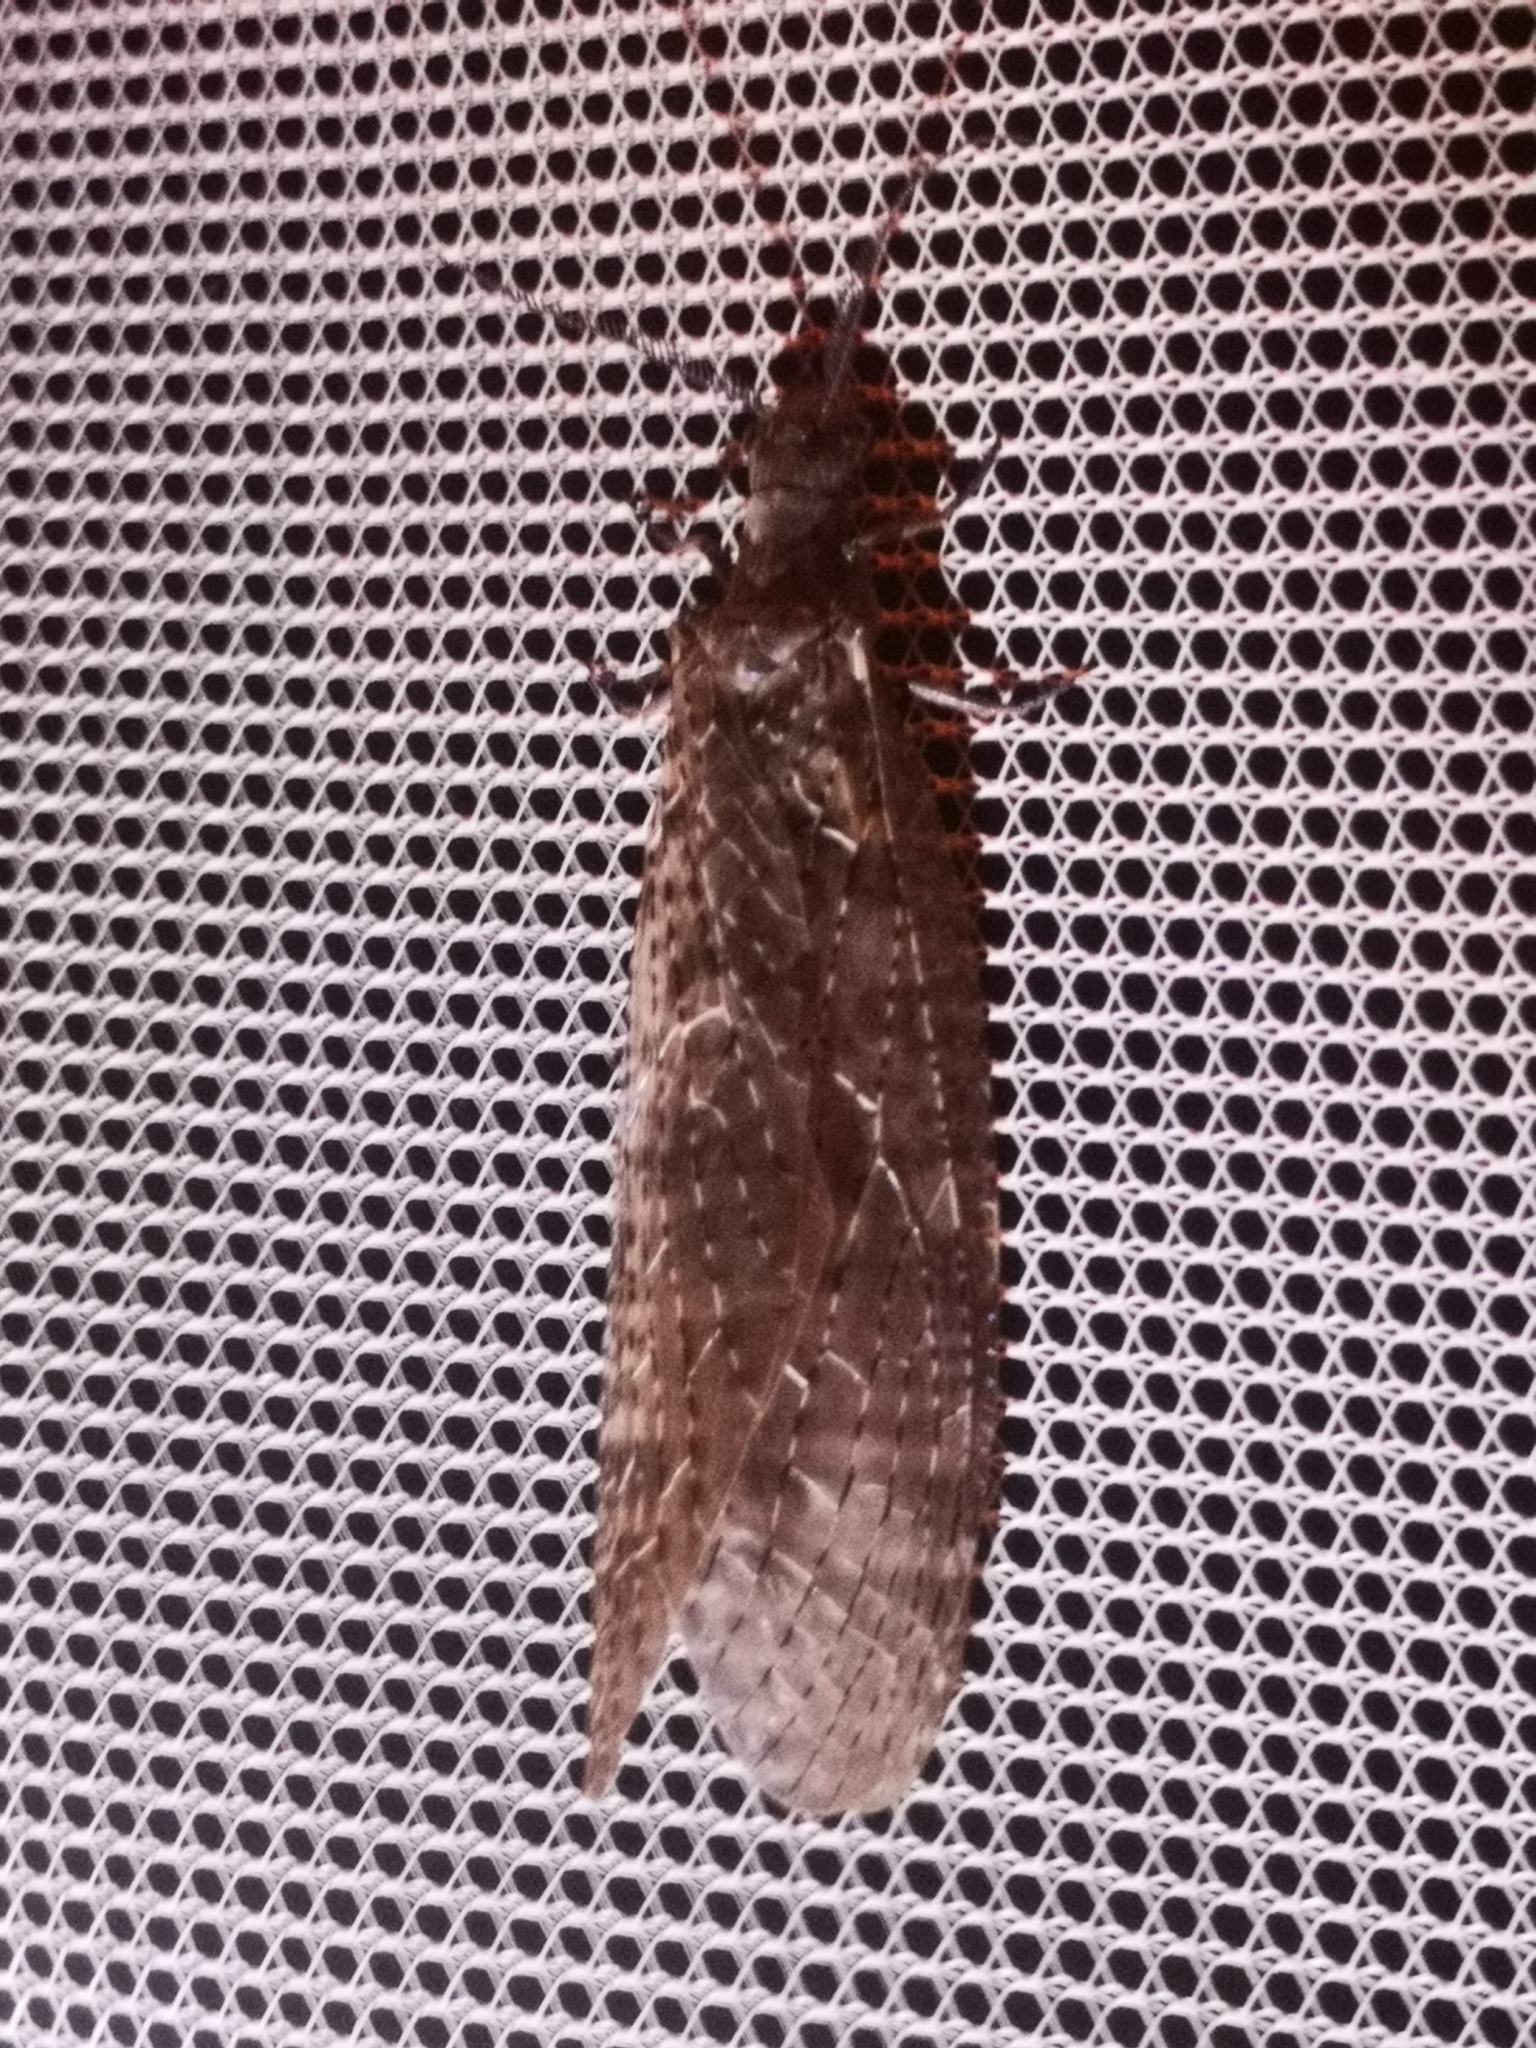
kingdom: Animalia
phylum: Arthropoda
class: Insecta
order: Megaloptera
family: Corydalidae
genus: Chauliodes
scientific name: Chauliodes pectinicornis
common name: Summer fishfly
